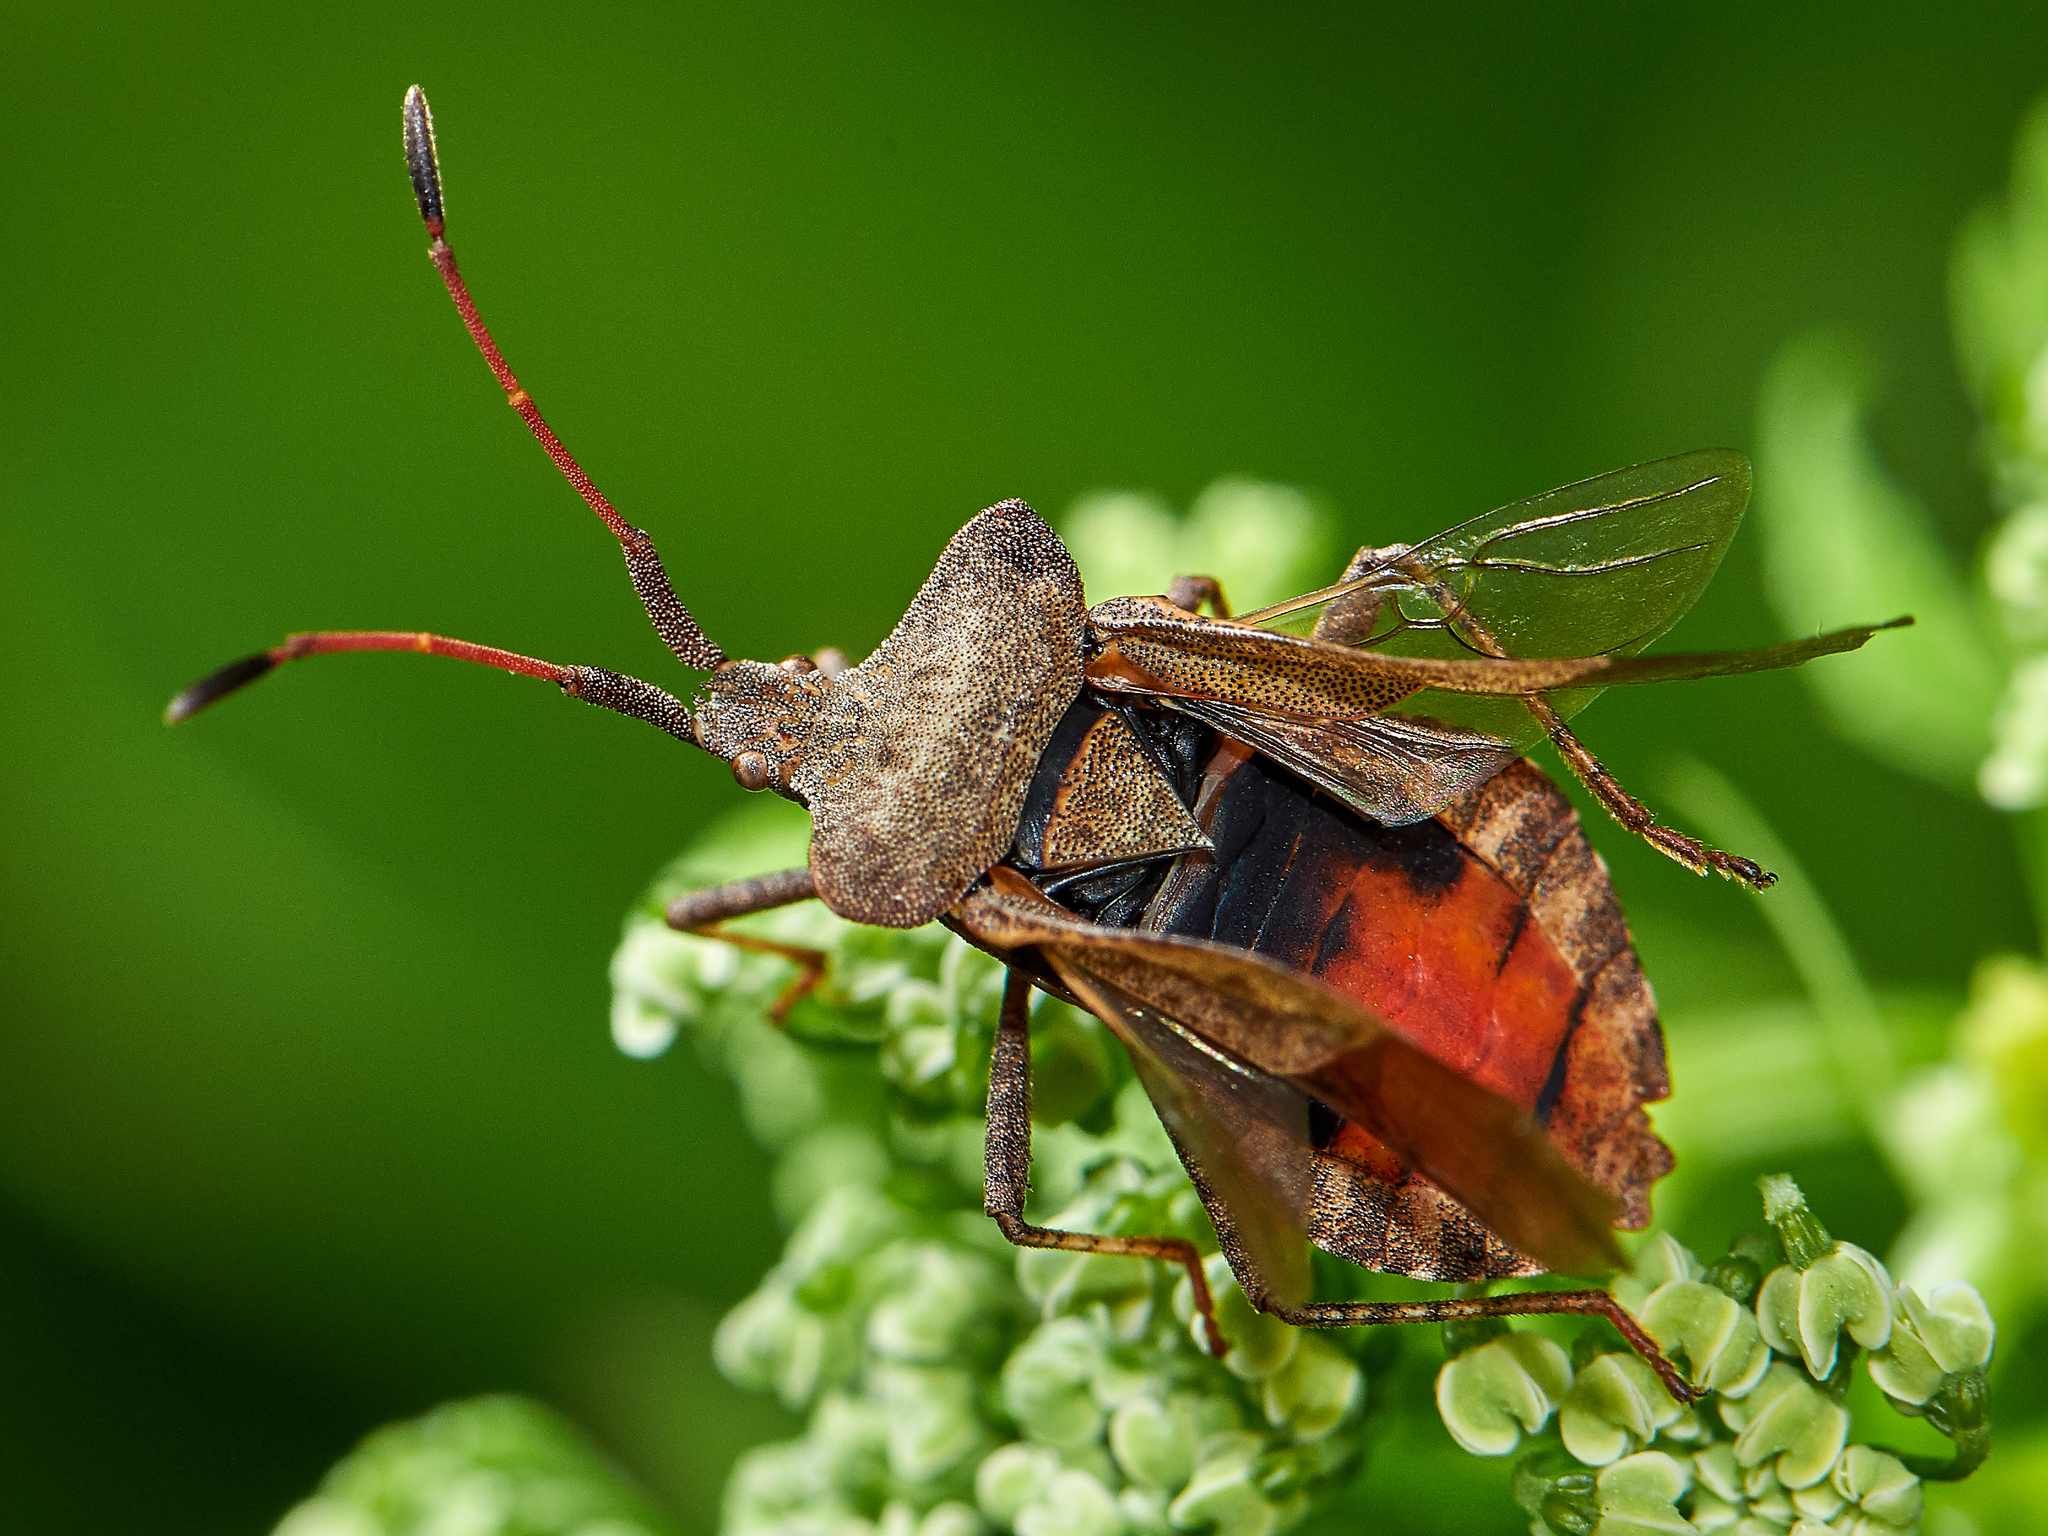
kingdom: Animalia
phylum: Arthropoda
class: Insecta
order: Hemiptera
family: Coreidae
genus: Coreus
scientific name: Coreus marginatus
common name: Dock bug
